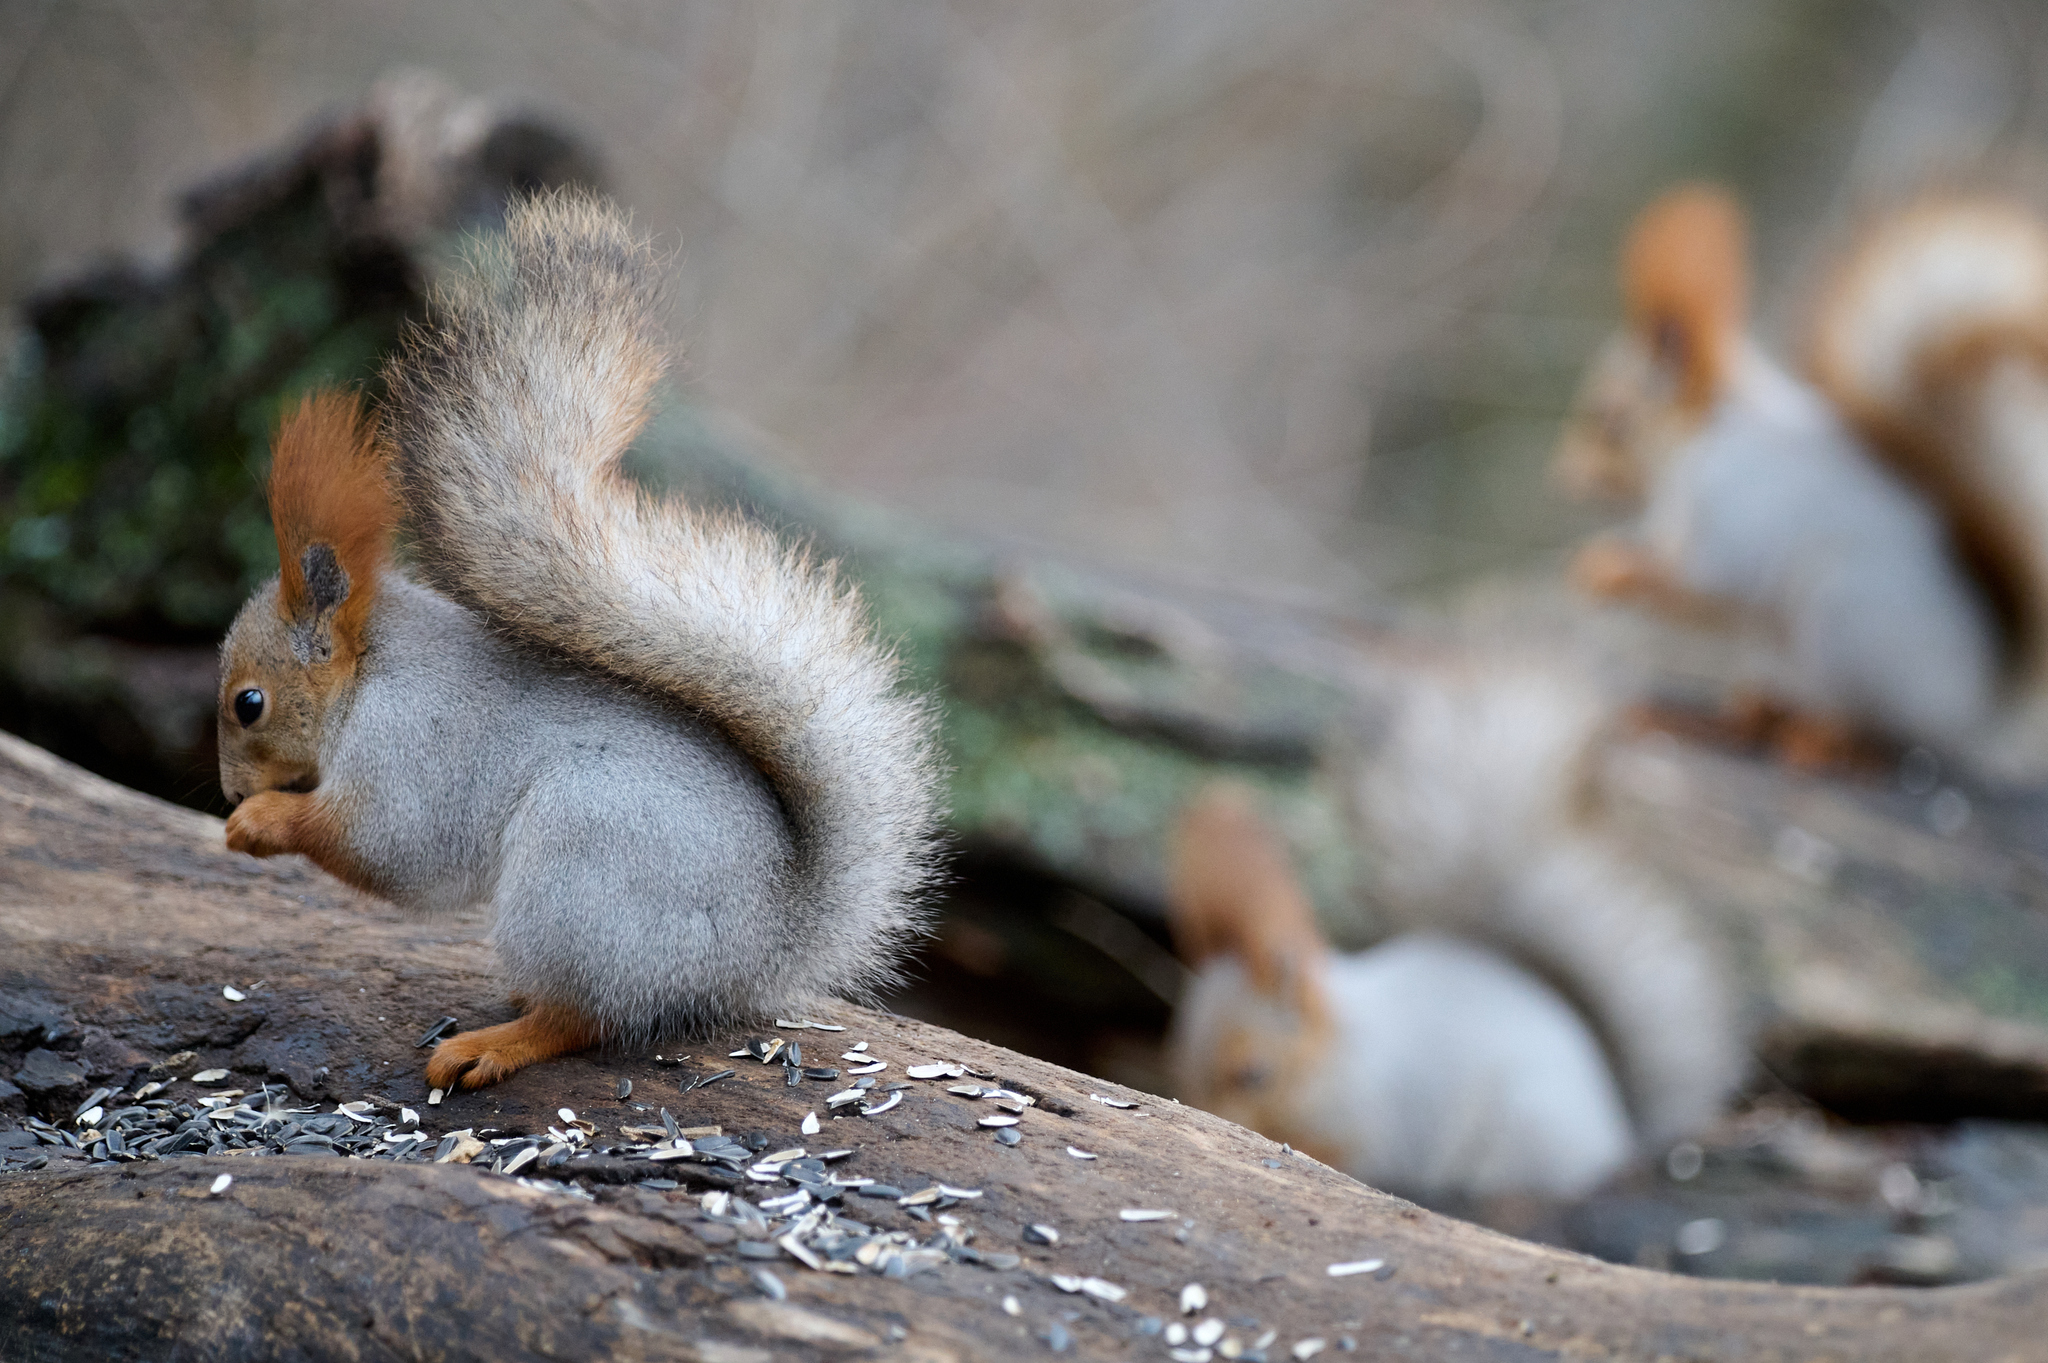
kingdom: Animalia
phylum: Chordata
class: Mammalia
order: Rodentia
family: Sciuridae
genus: Sciurus
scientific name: Sciurus vulgaris
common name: Eurasian red squirrel
